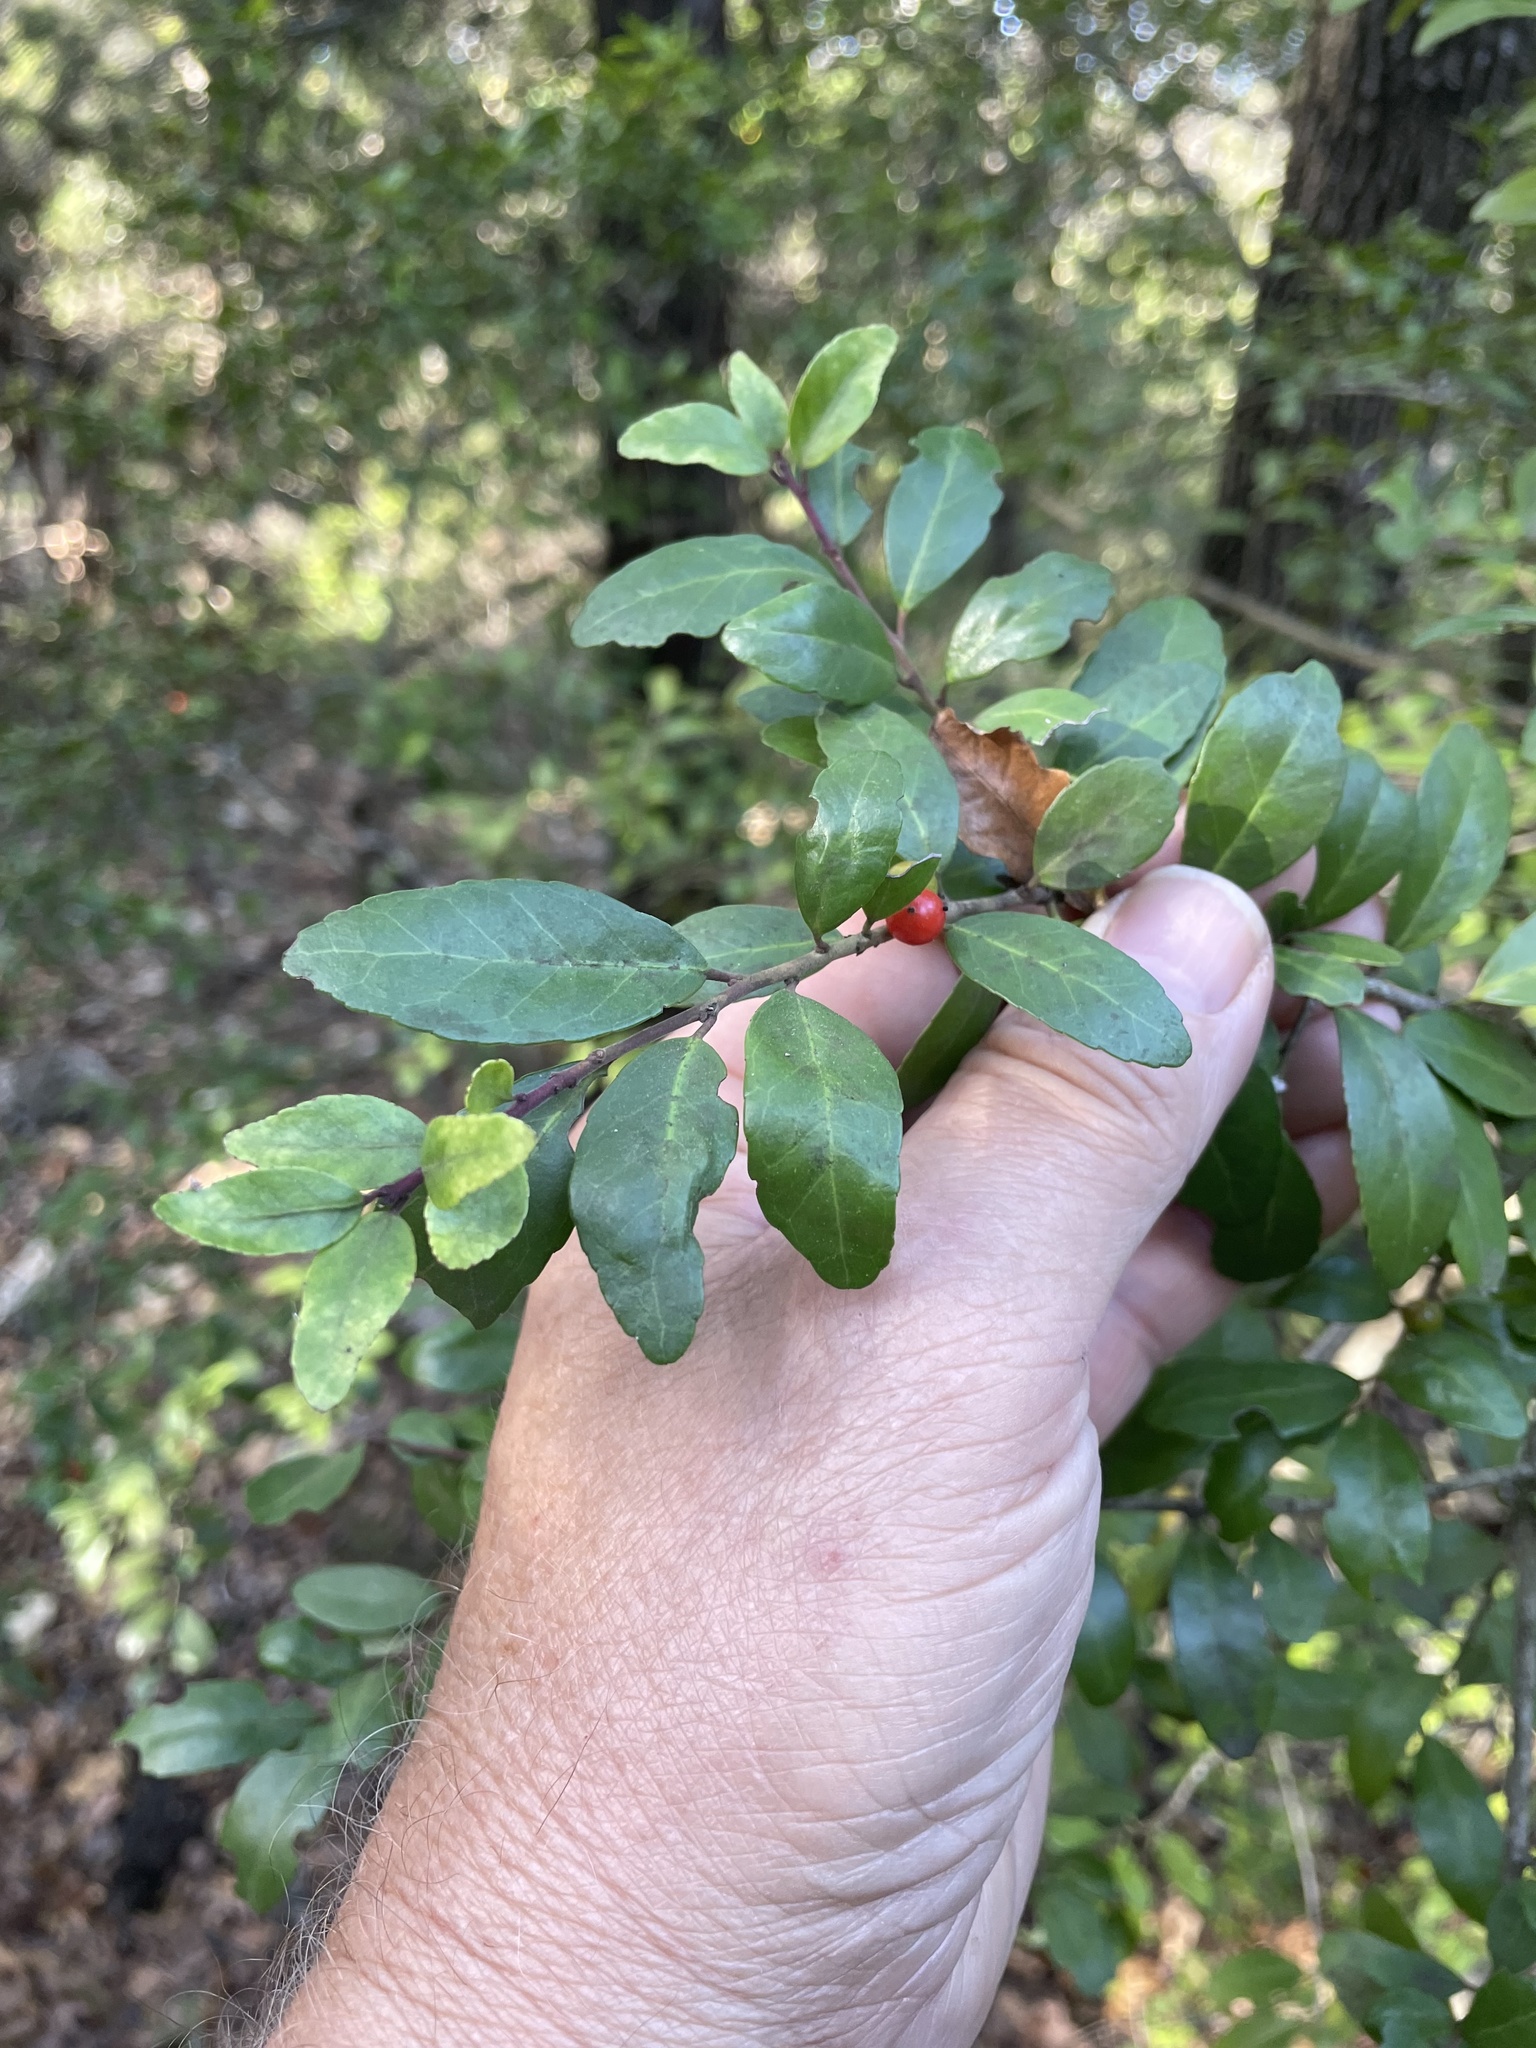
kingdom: Plantae
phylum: Tracheophyta
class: Magnoliopsida
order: Aquifoliales
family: Aquifoliaceae
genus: Ilex
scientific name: Ilex vomitoria
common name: Yaupon holly
